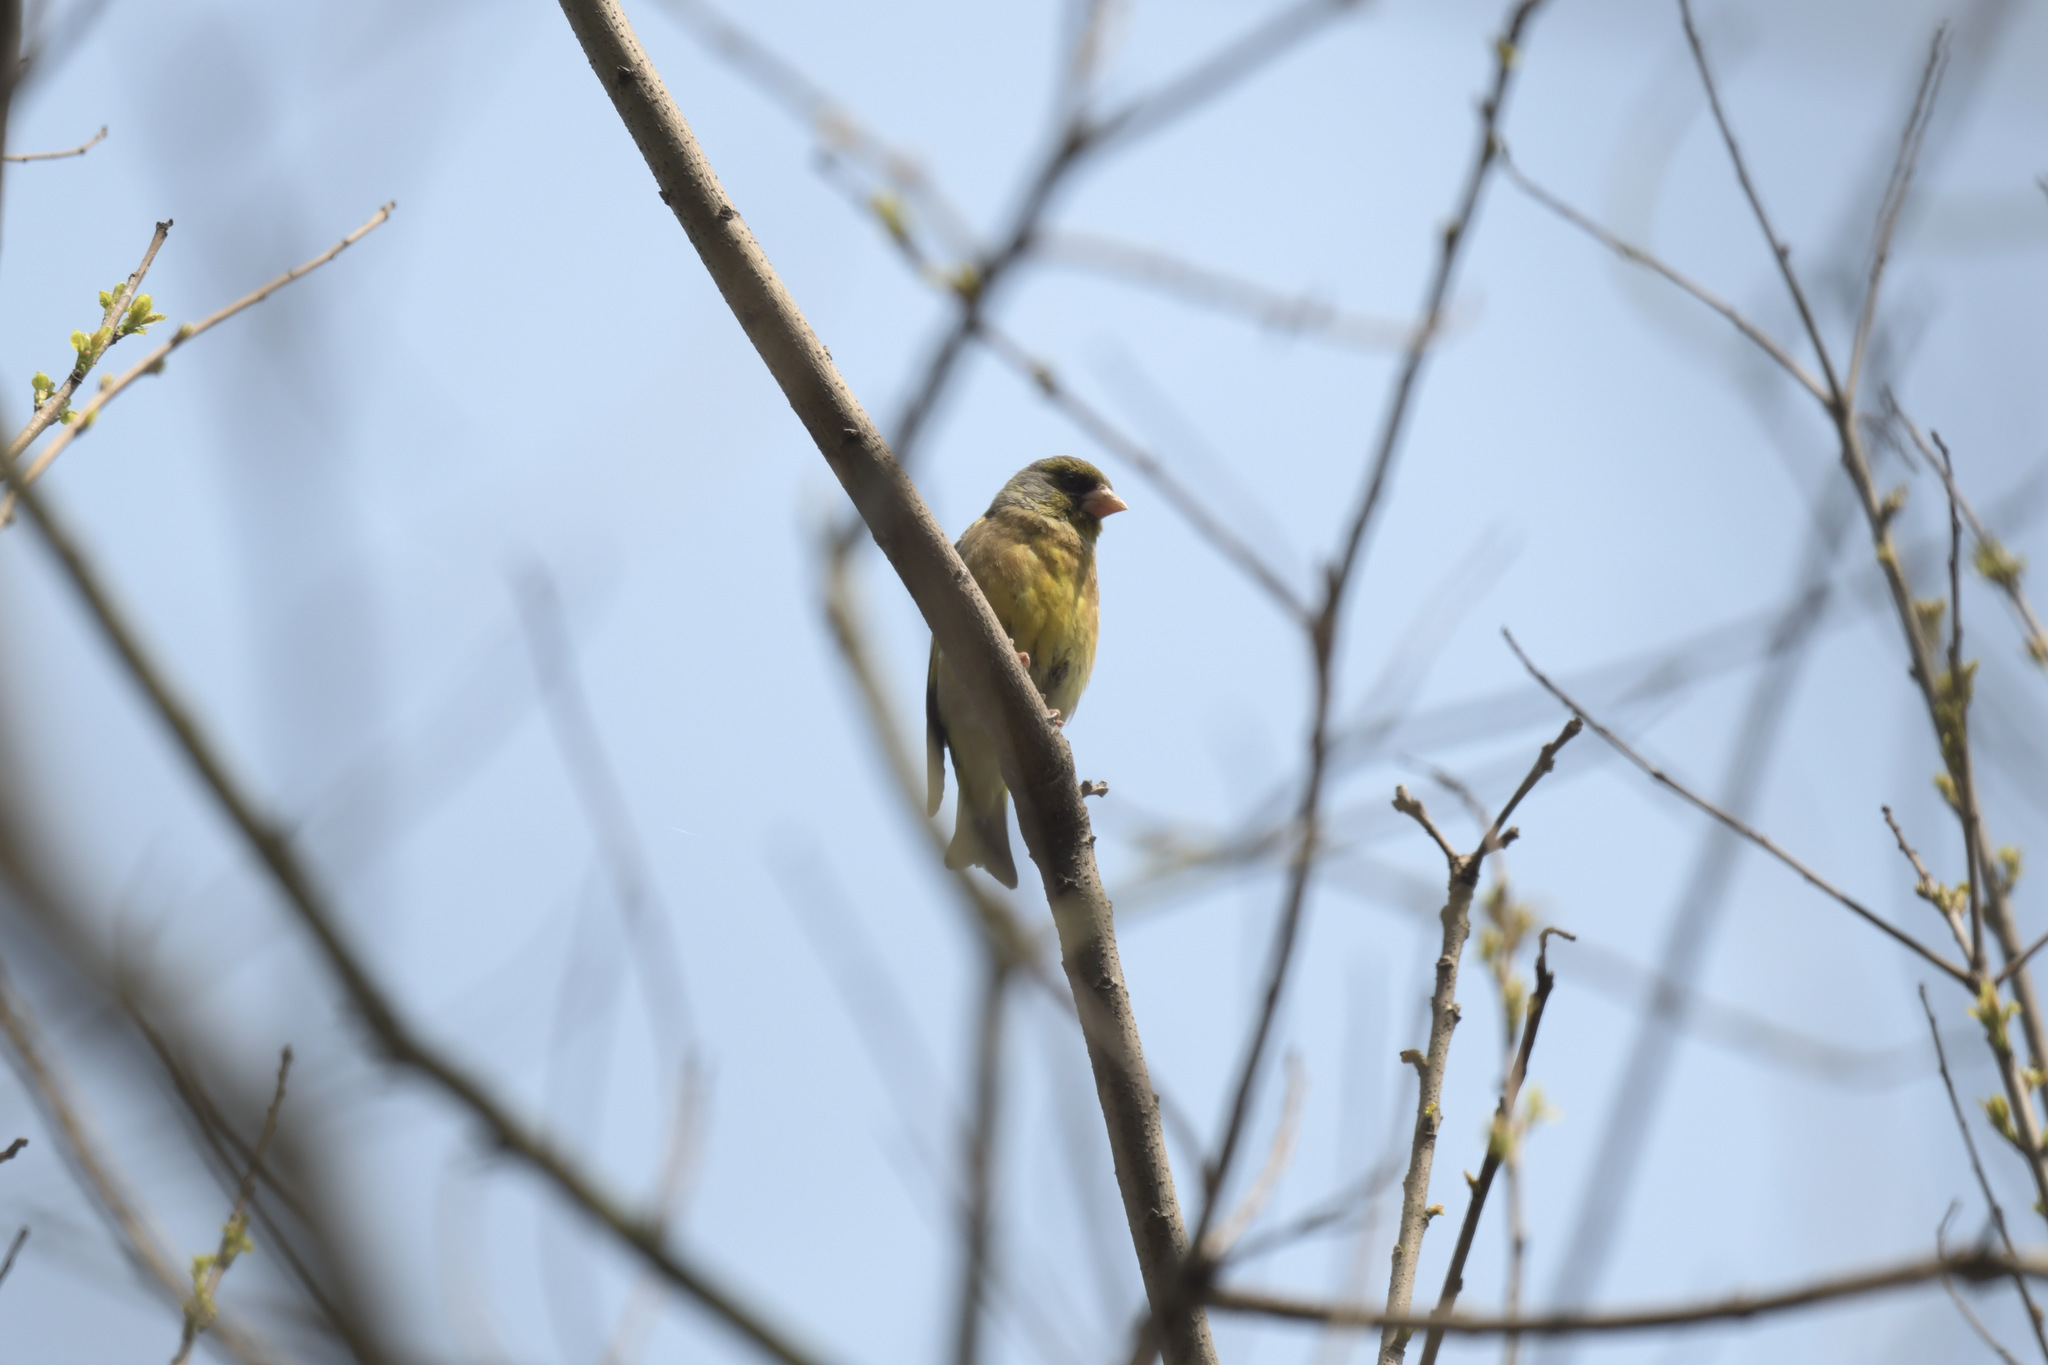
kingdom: Plantae
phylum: Tracheophyta
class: Liliopsida
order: Poales
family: Poaceae
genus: Chloris
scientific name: Chloris sinica
